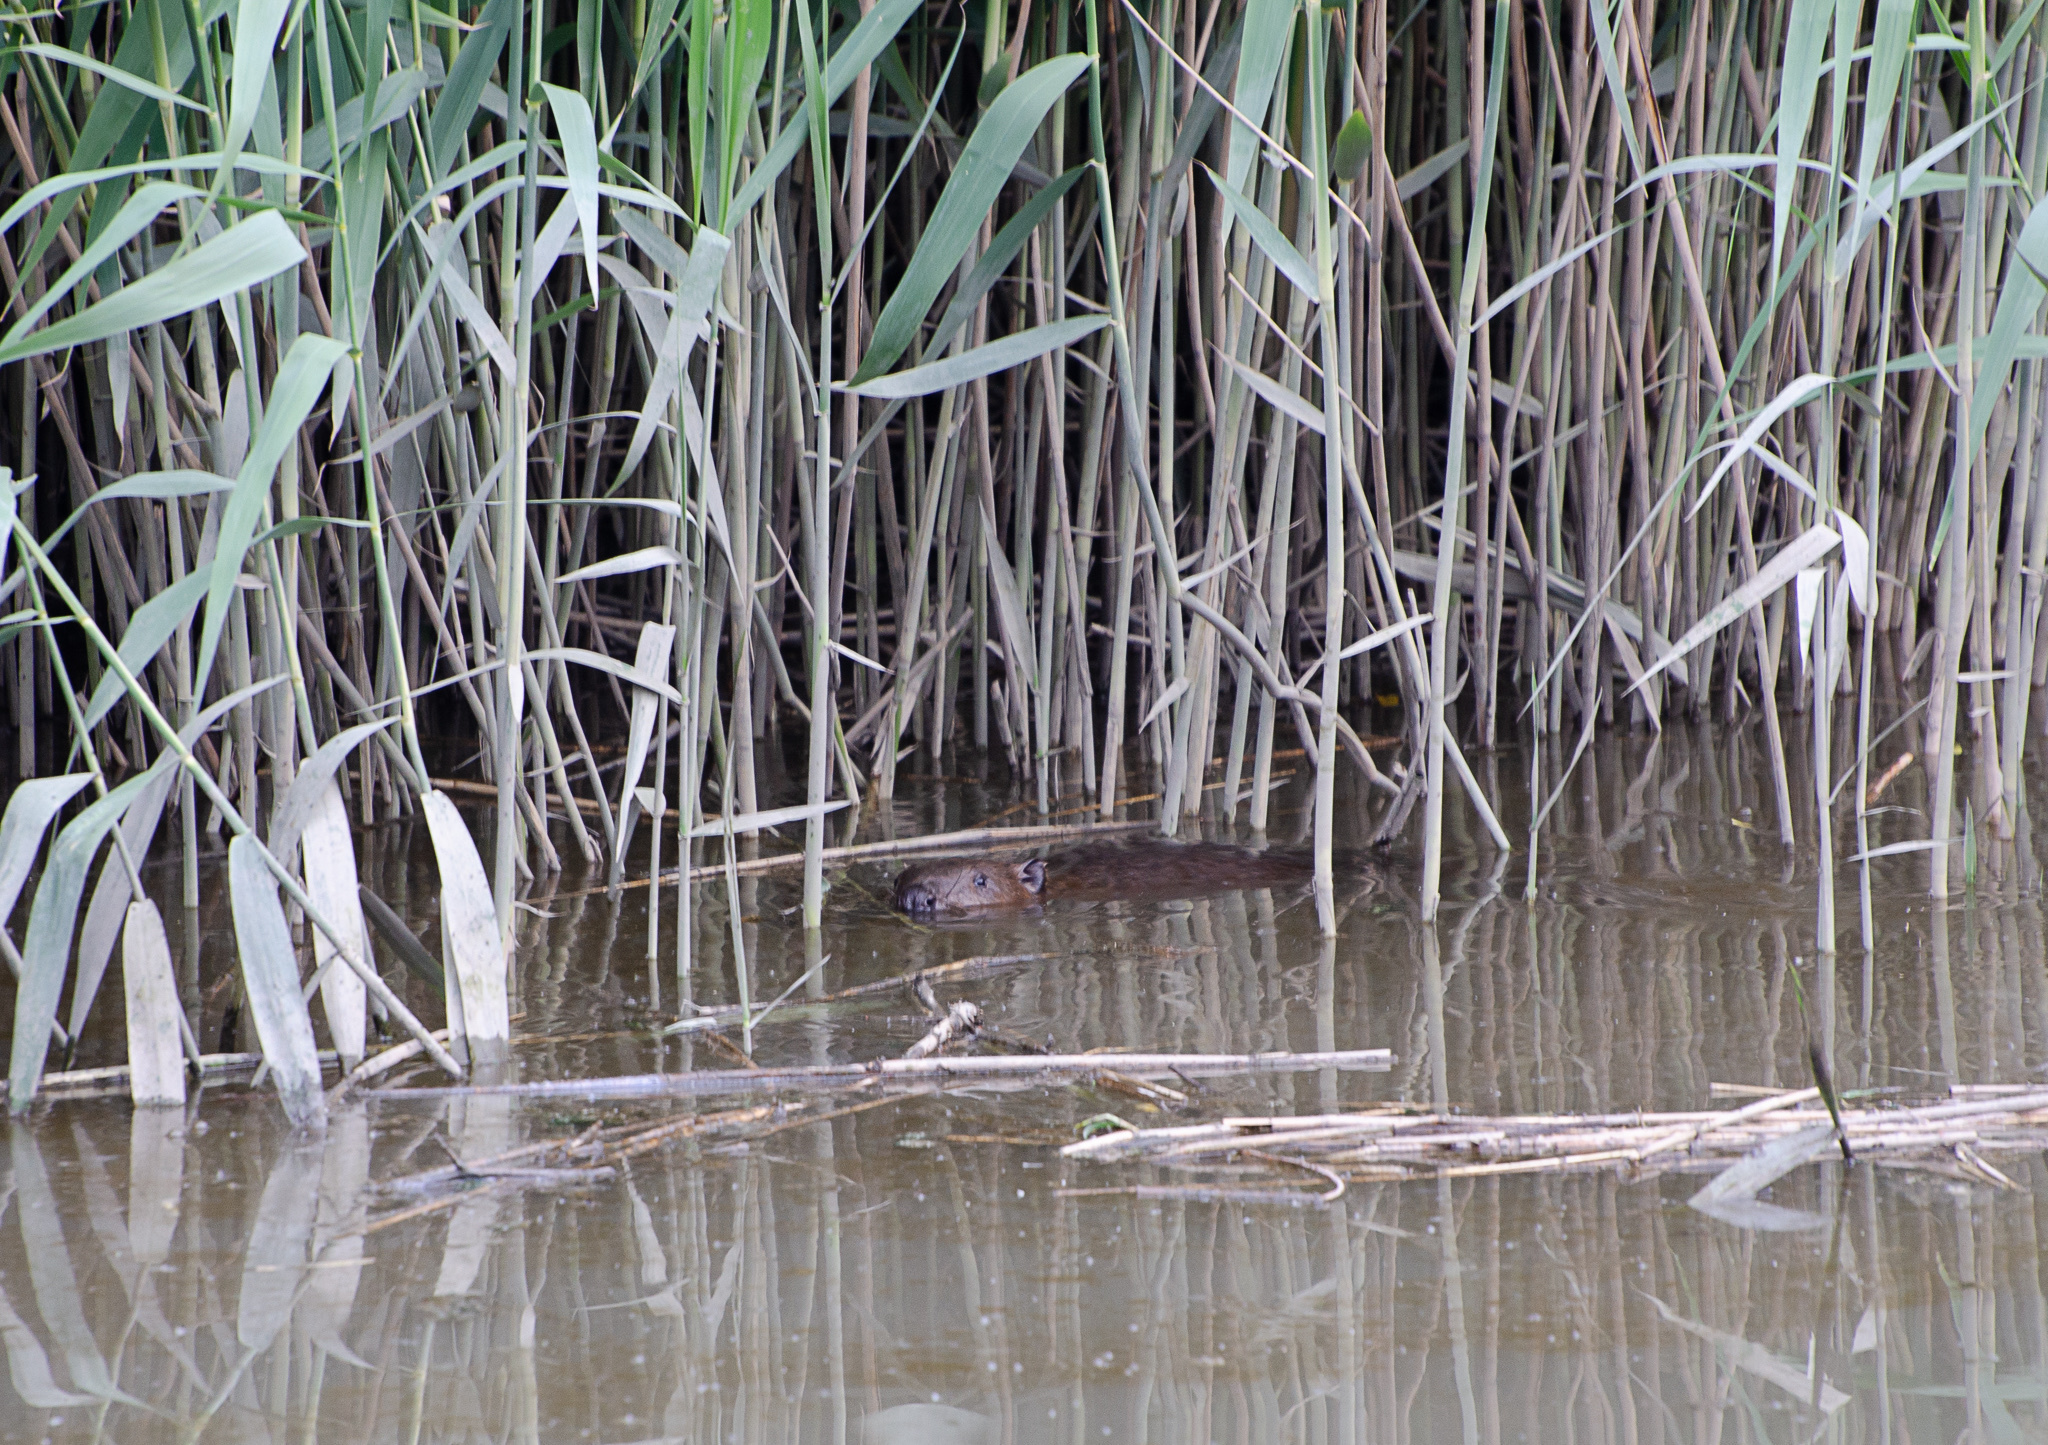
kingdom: Animalia
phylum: Chordata
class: Mammalia
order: Rodentia
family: Castoridae
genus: Castor
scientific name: Castor fiber
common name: Eurasian beaver
